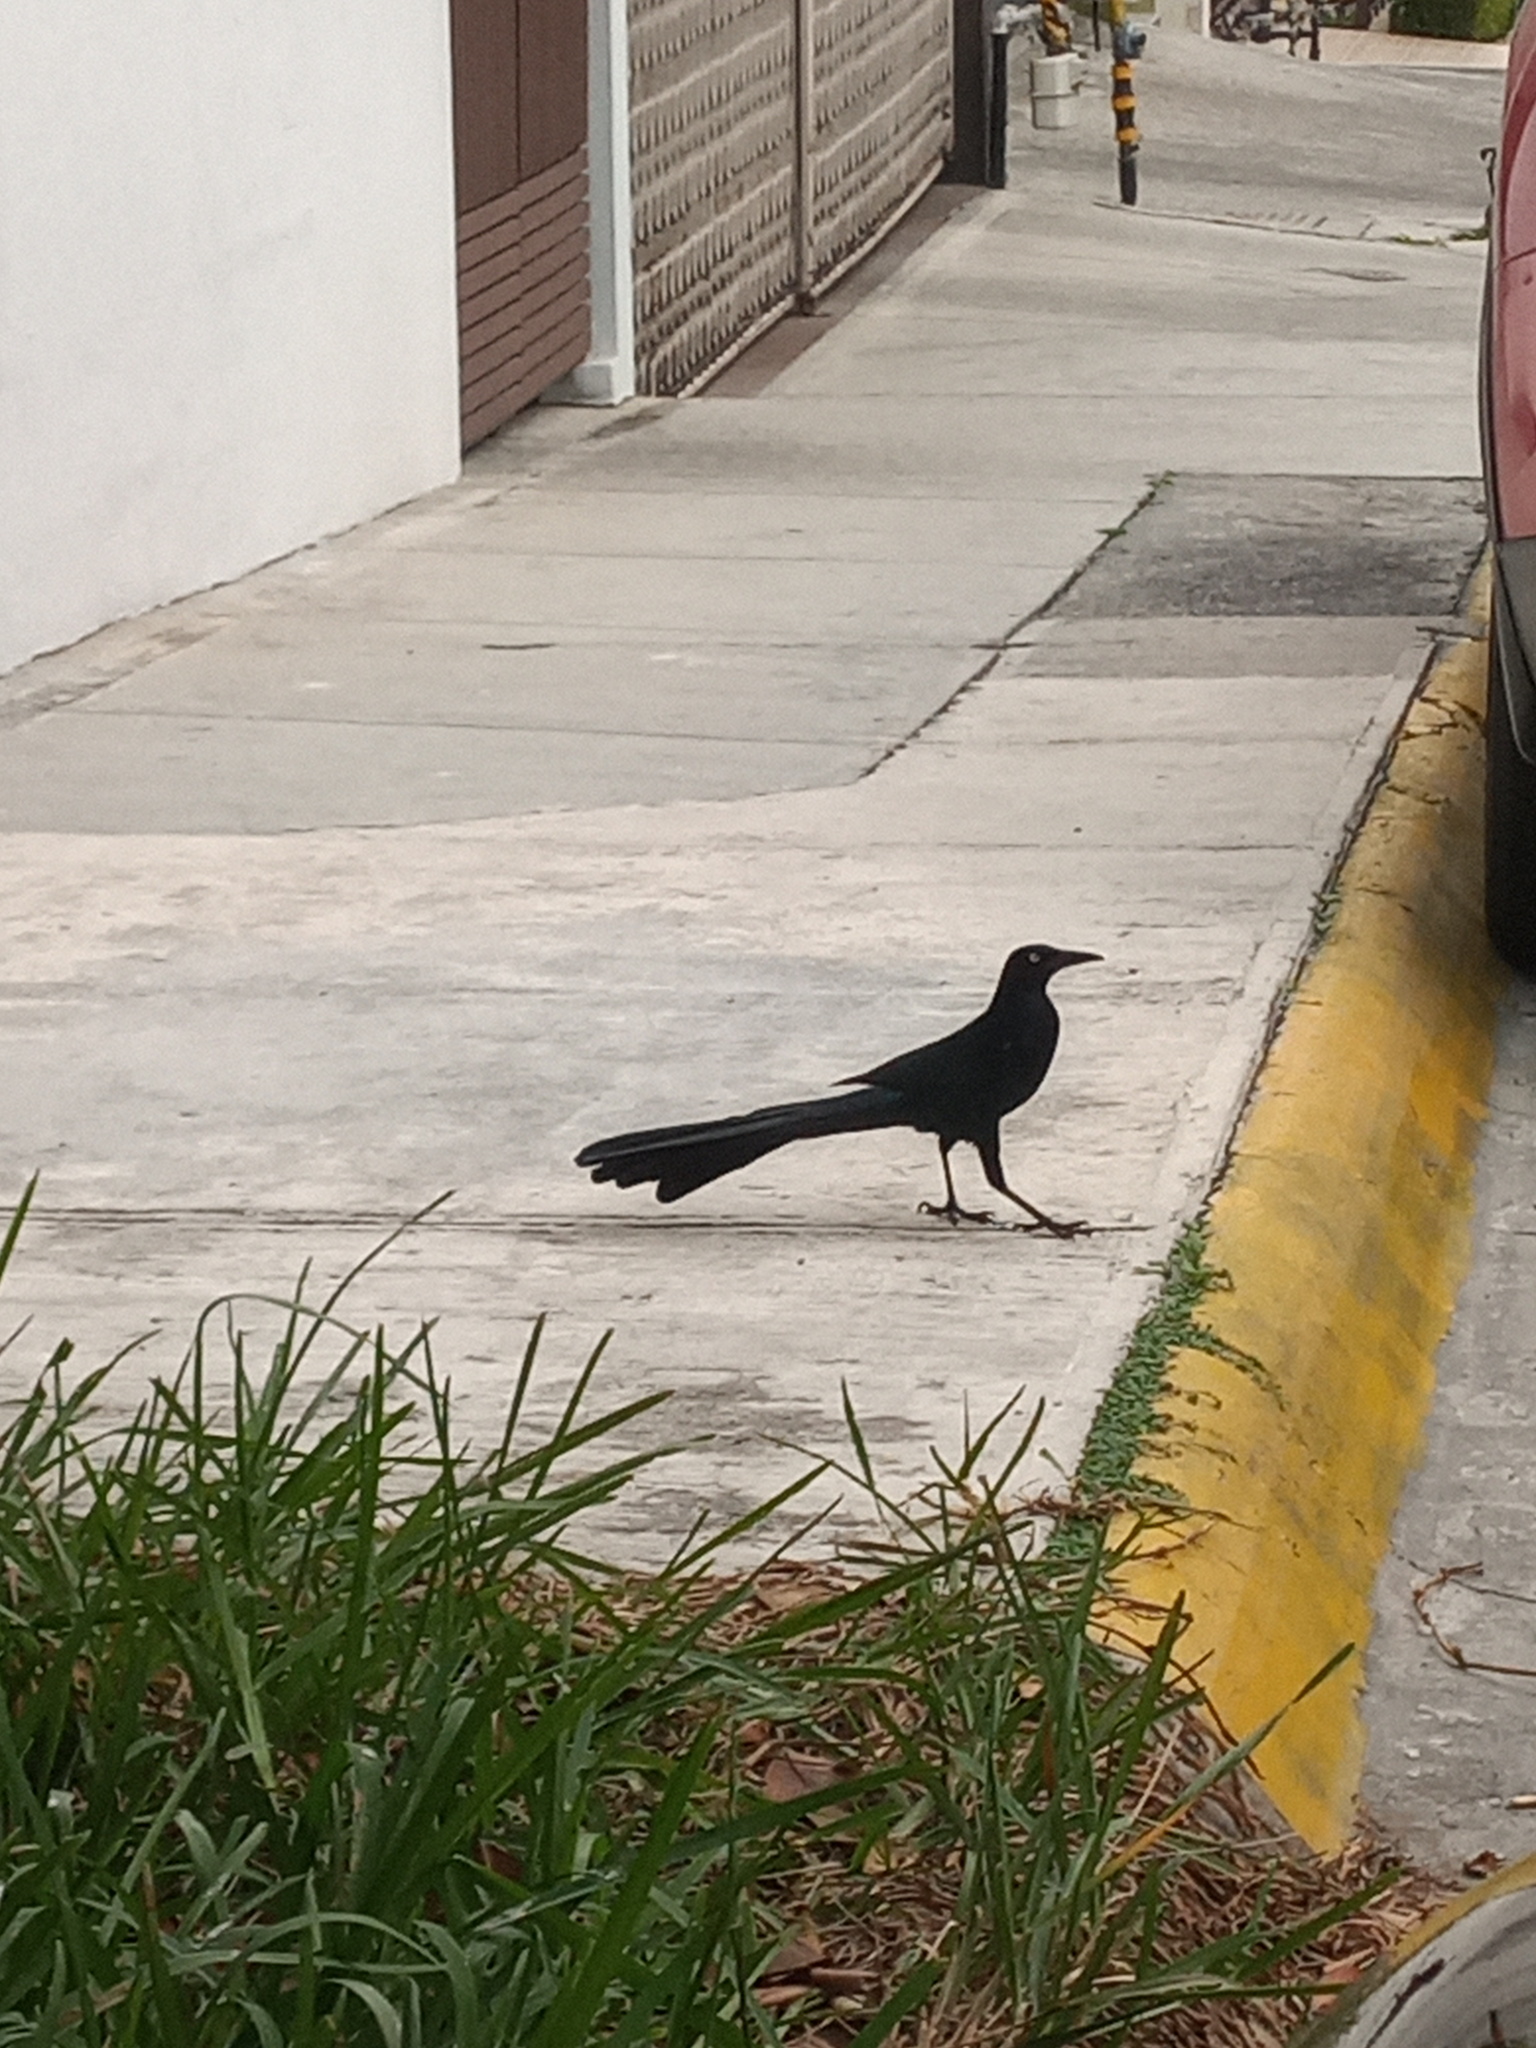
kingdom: Animalia
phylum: Chordata
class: Aves
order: Passeriformes
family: Icteridae
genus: Quiscalus
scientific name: Quiscalus mexicanus
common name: Great-tailed grackle
